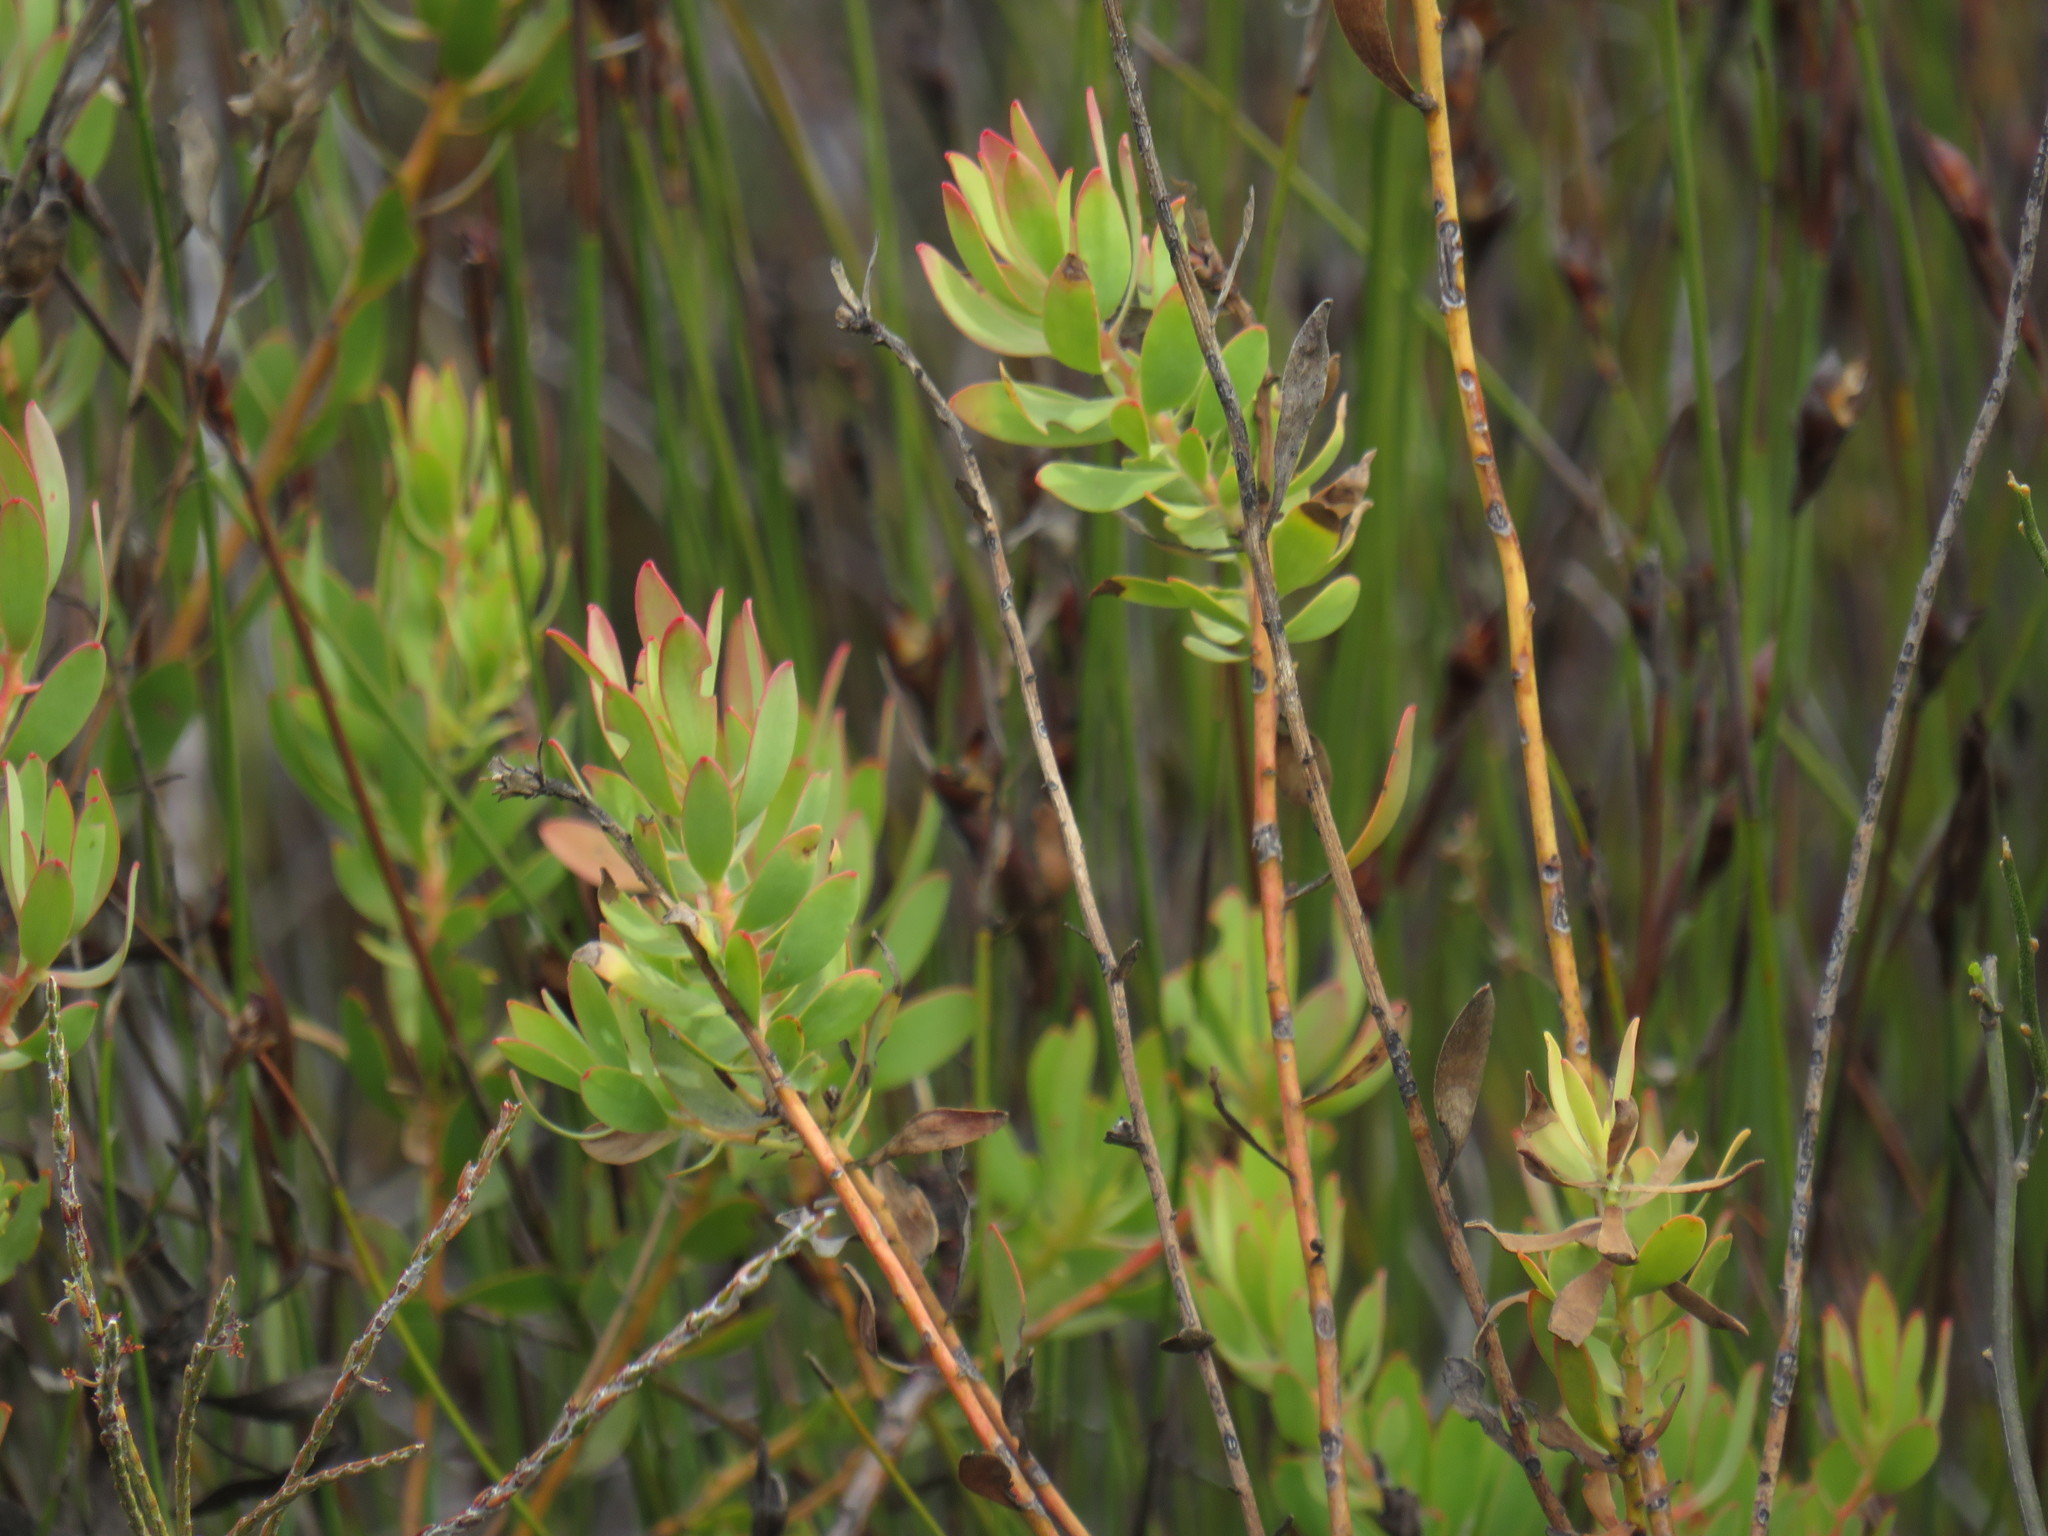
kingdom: Plantae
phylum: Tracheophyta
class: Magnoliopsida
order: Proteales
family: Proteaceae
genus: Leucadendron
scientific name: Leucadendron glaberrimum
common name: Common oily conebush
